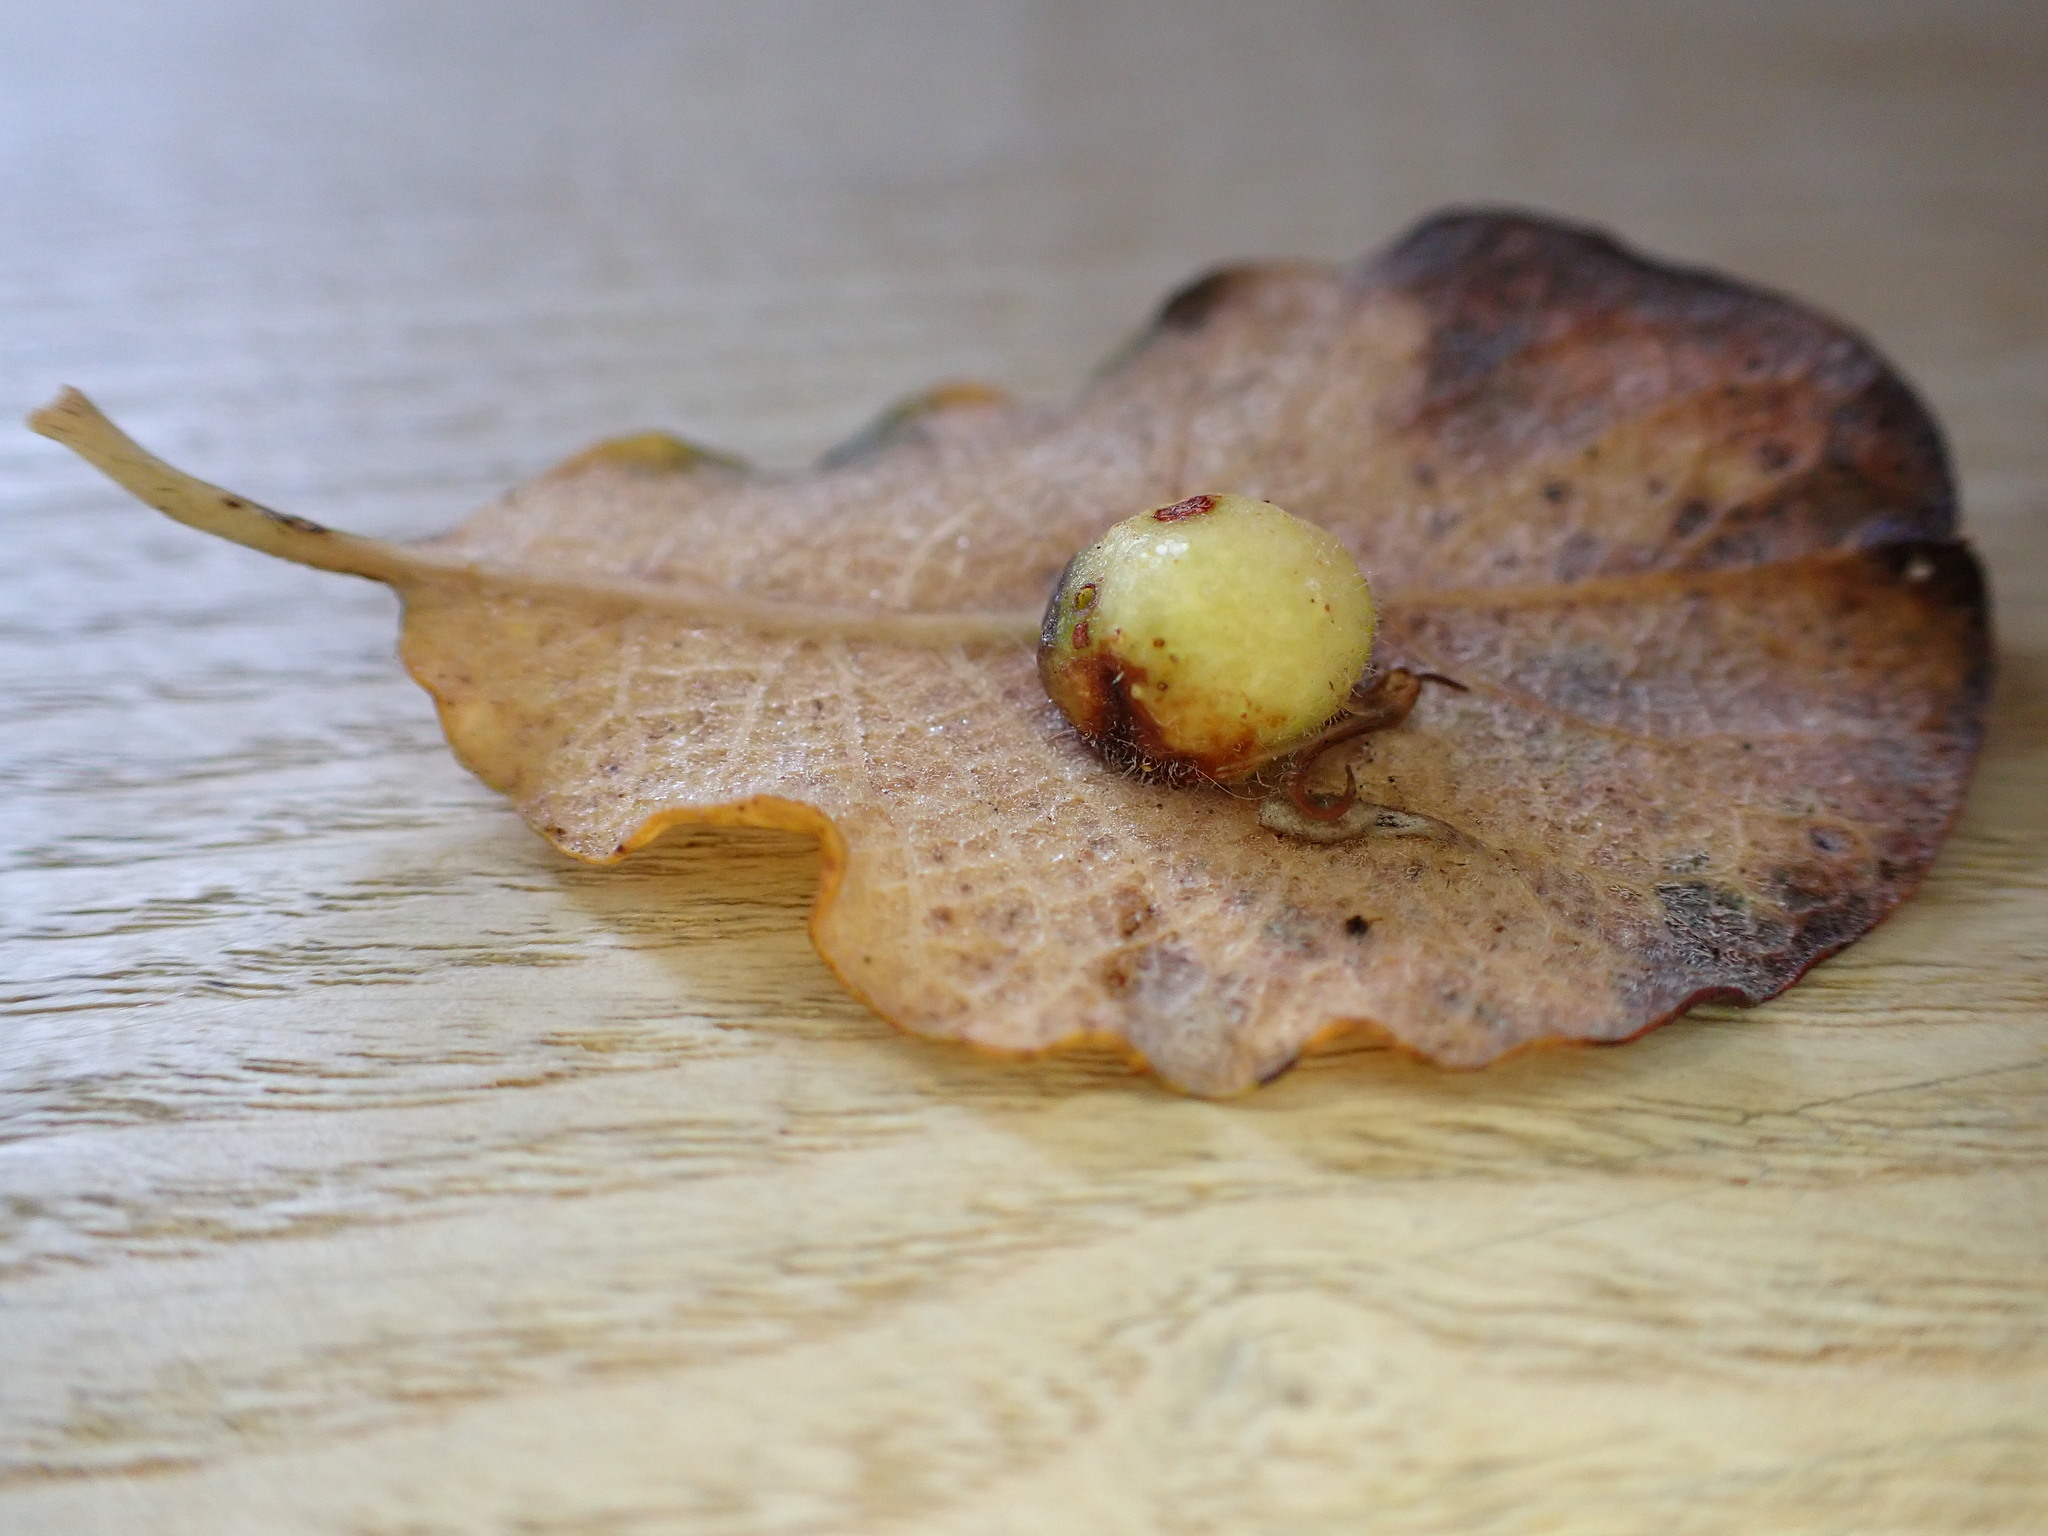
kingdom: Animalia
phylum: Arthropoda
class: Insecta
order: Hymenoptera
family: Tenthredinidae
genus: Pontania
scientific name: Pontania pedunculi
